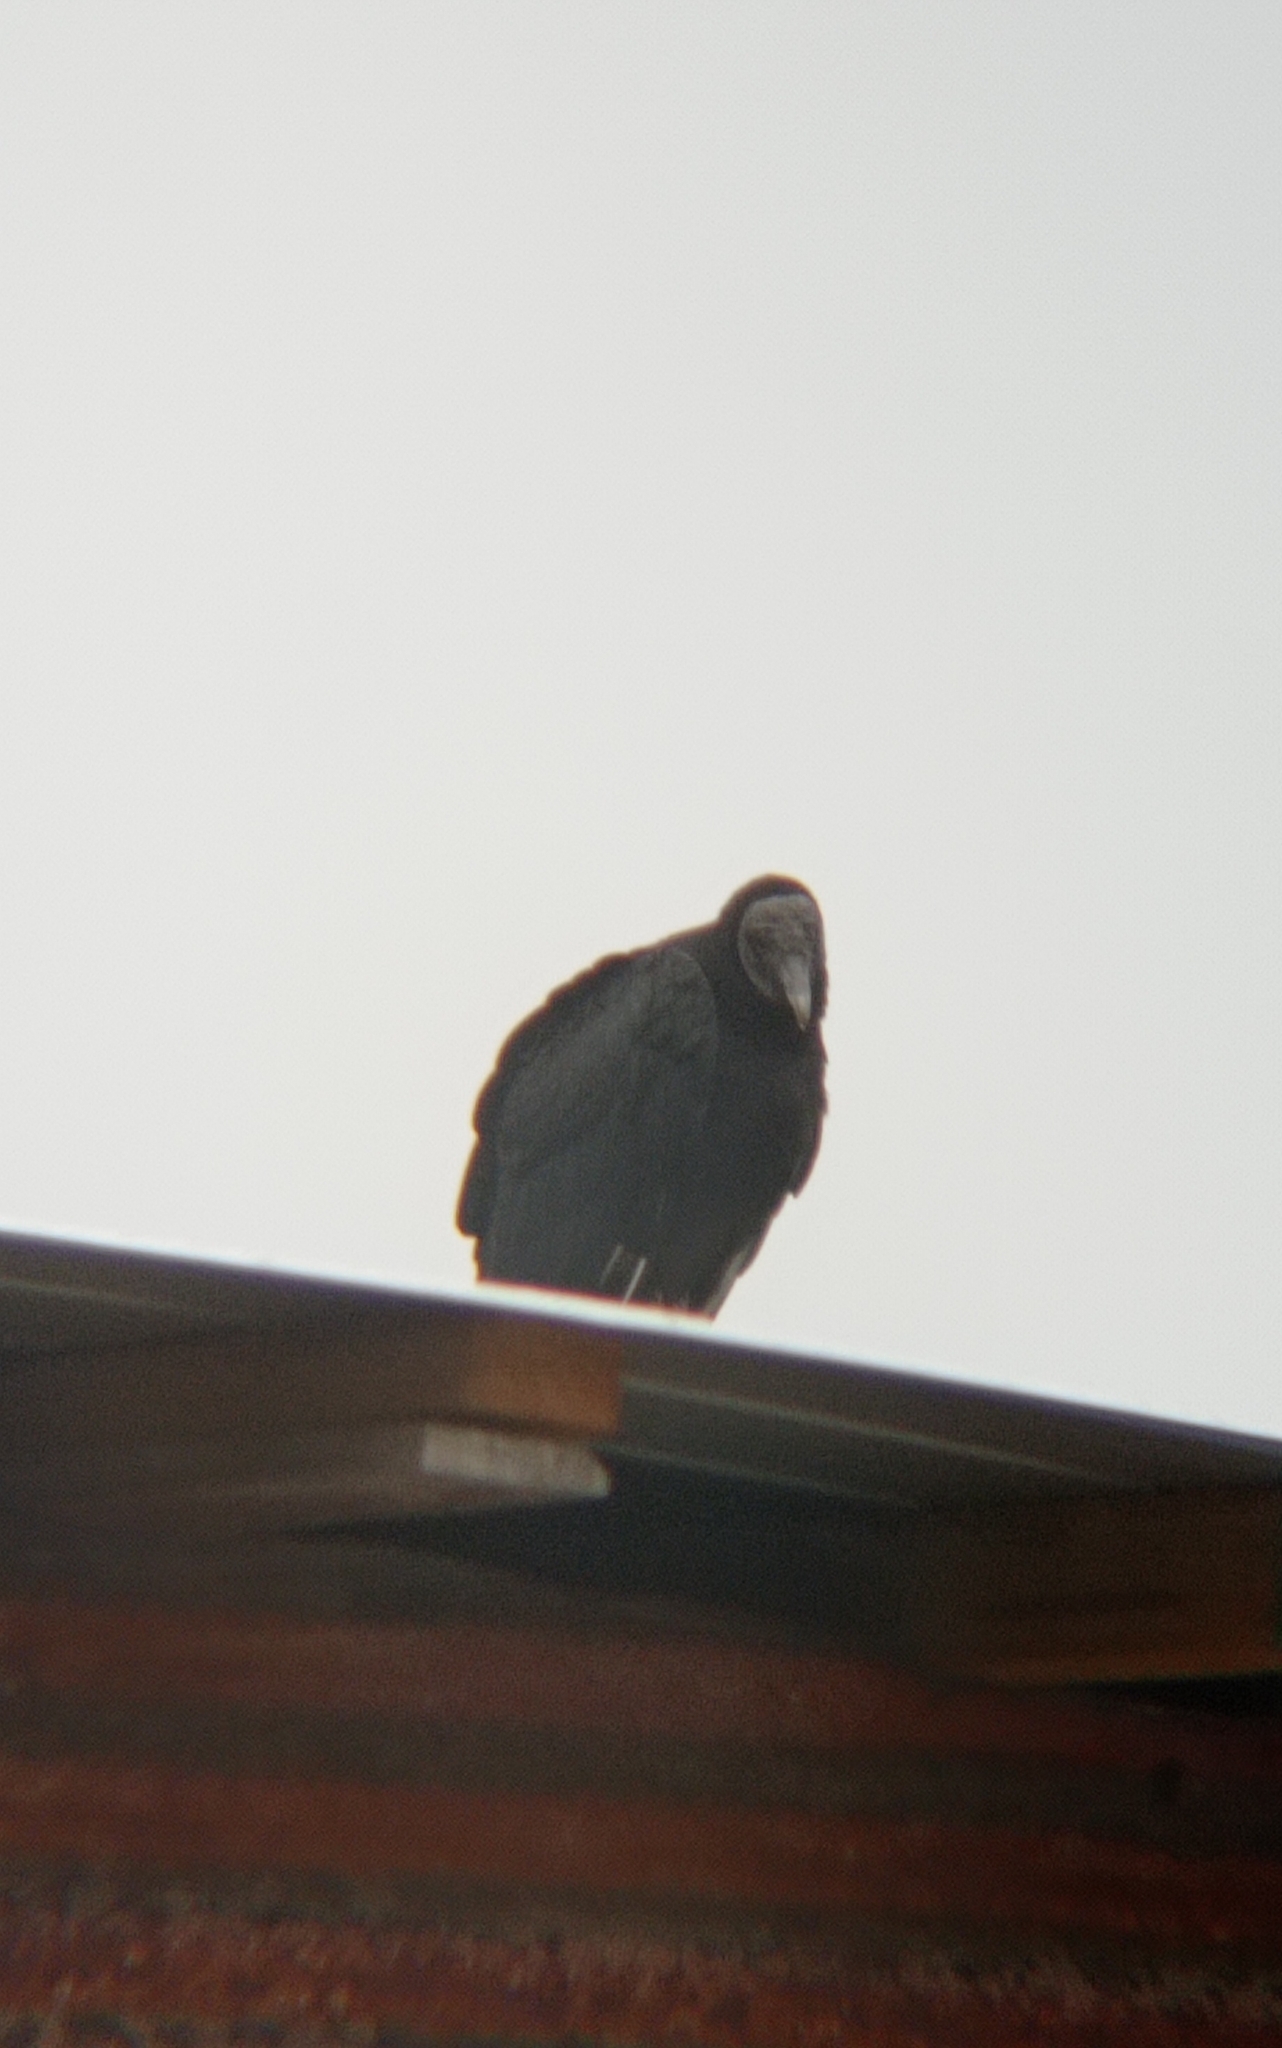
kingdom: Animalia
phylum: Chordata
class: Aves
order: Accipitriformes
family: Cathartidae
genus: Coragyps
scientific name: Coragyps atratus
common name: Black vulture
